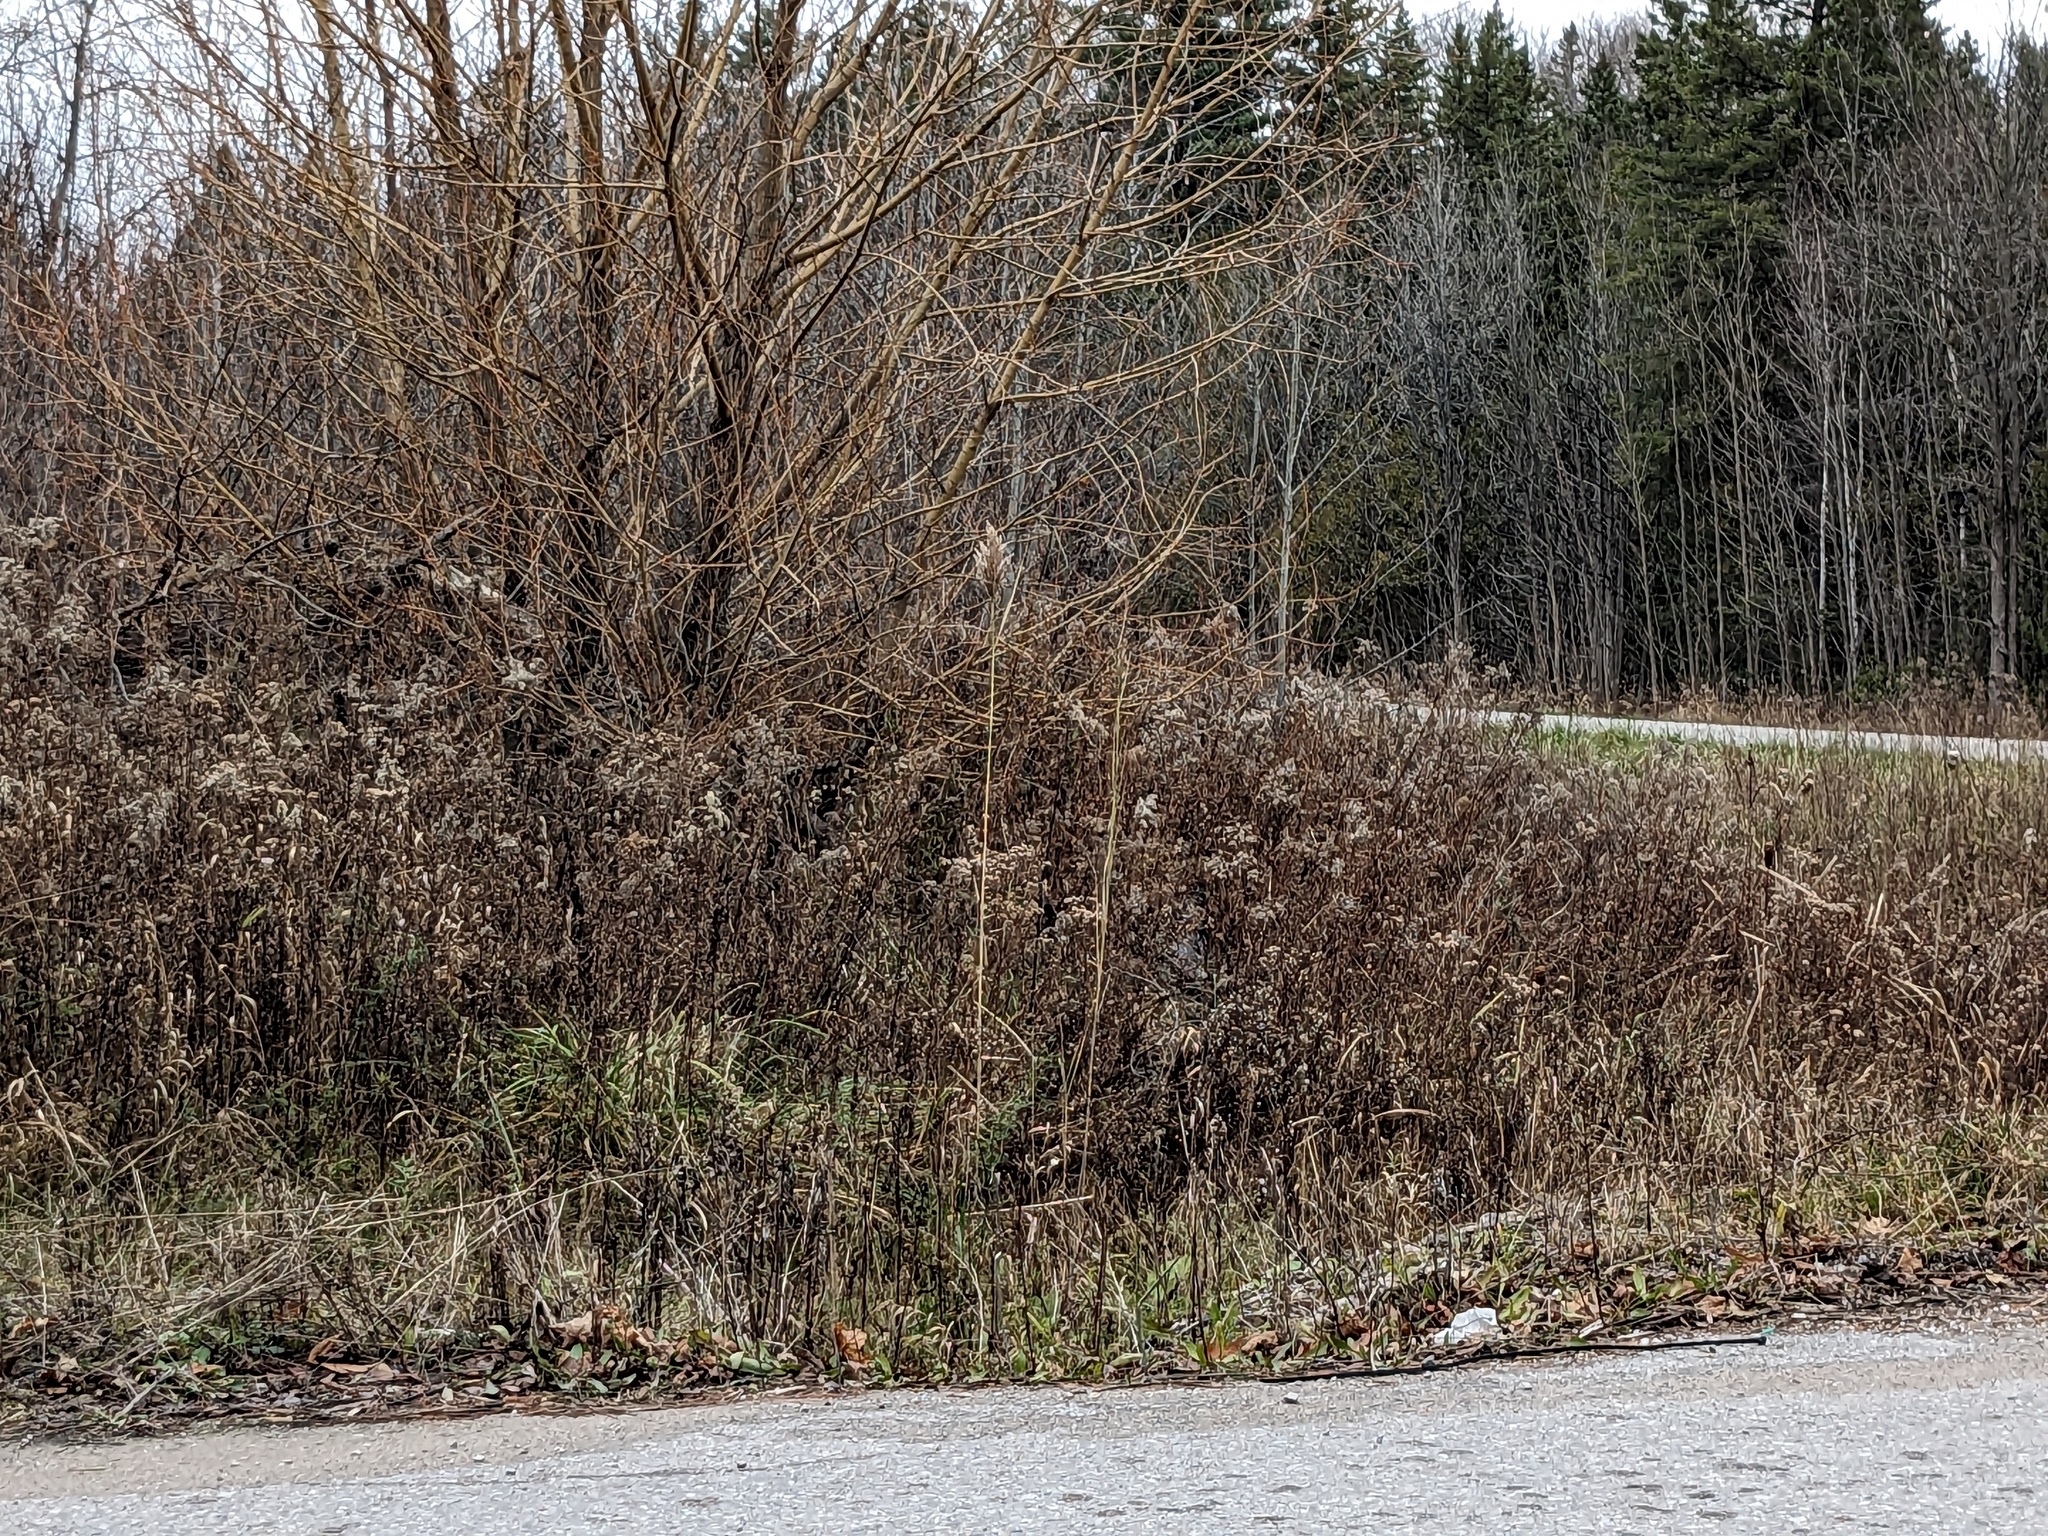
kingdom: Plantae
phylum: Tracheophyta
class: Liliopsida
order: Poales
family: Poaceae
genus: Phragmites
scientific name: Phragmites australis
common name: Common reed
